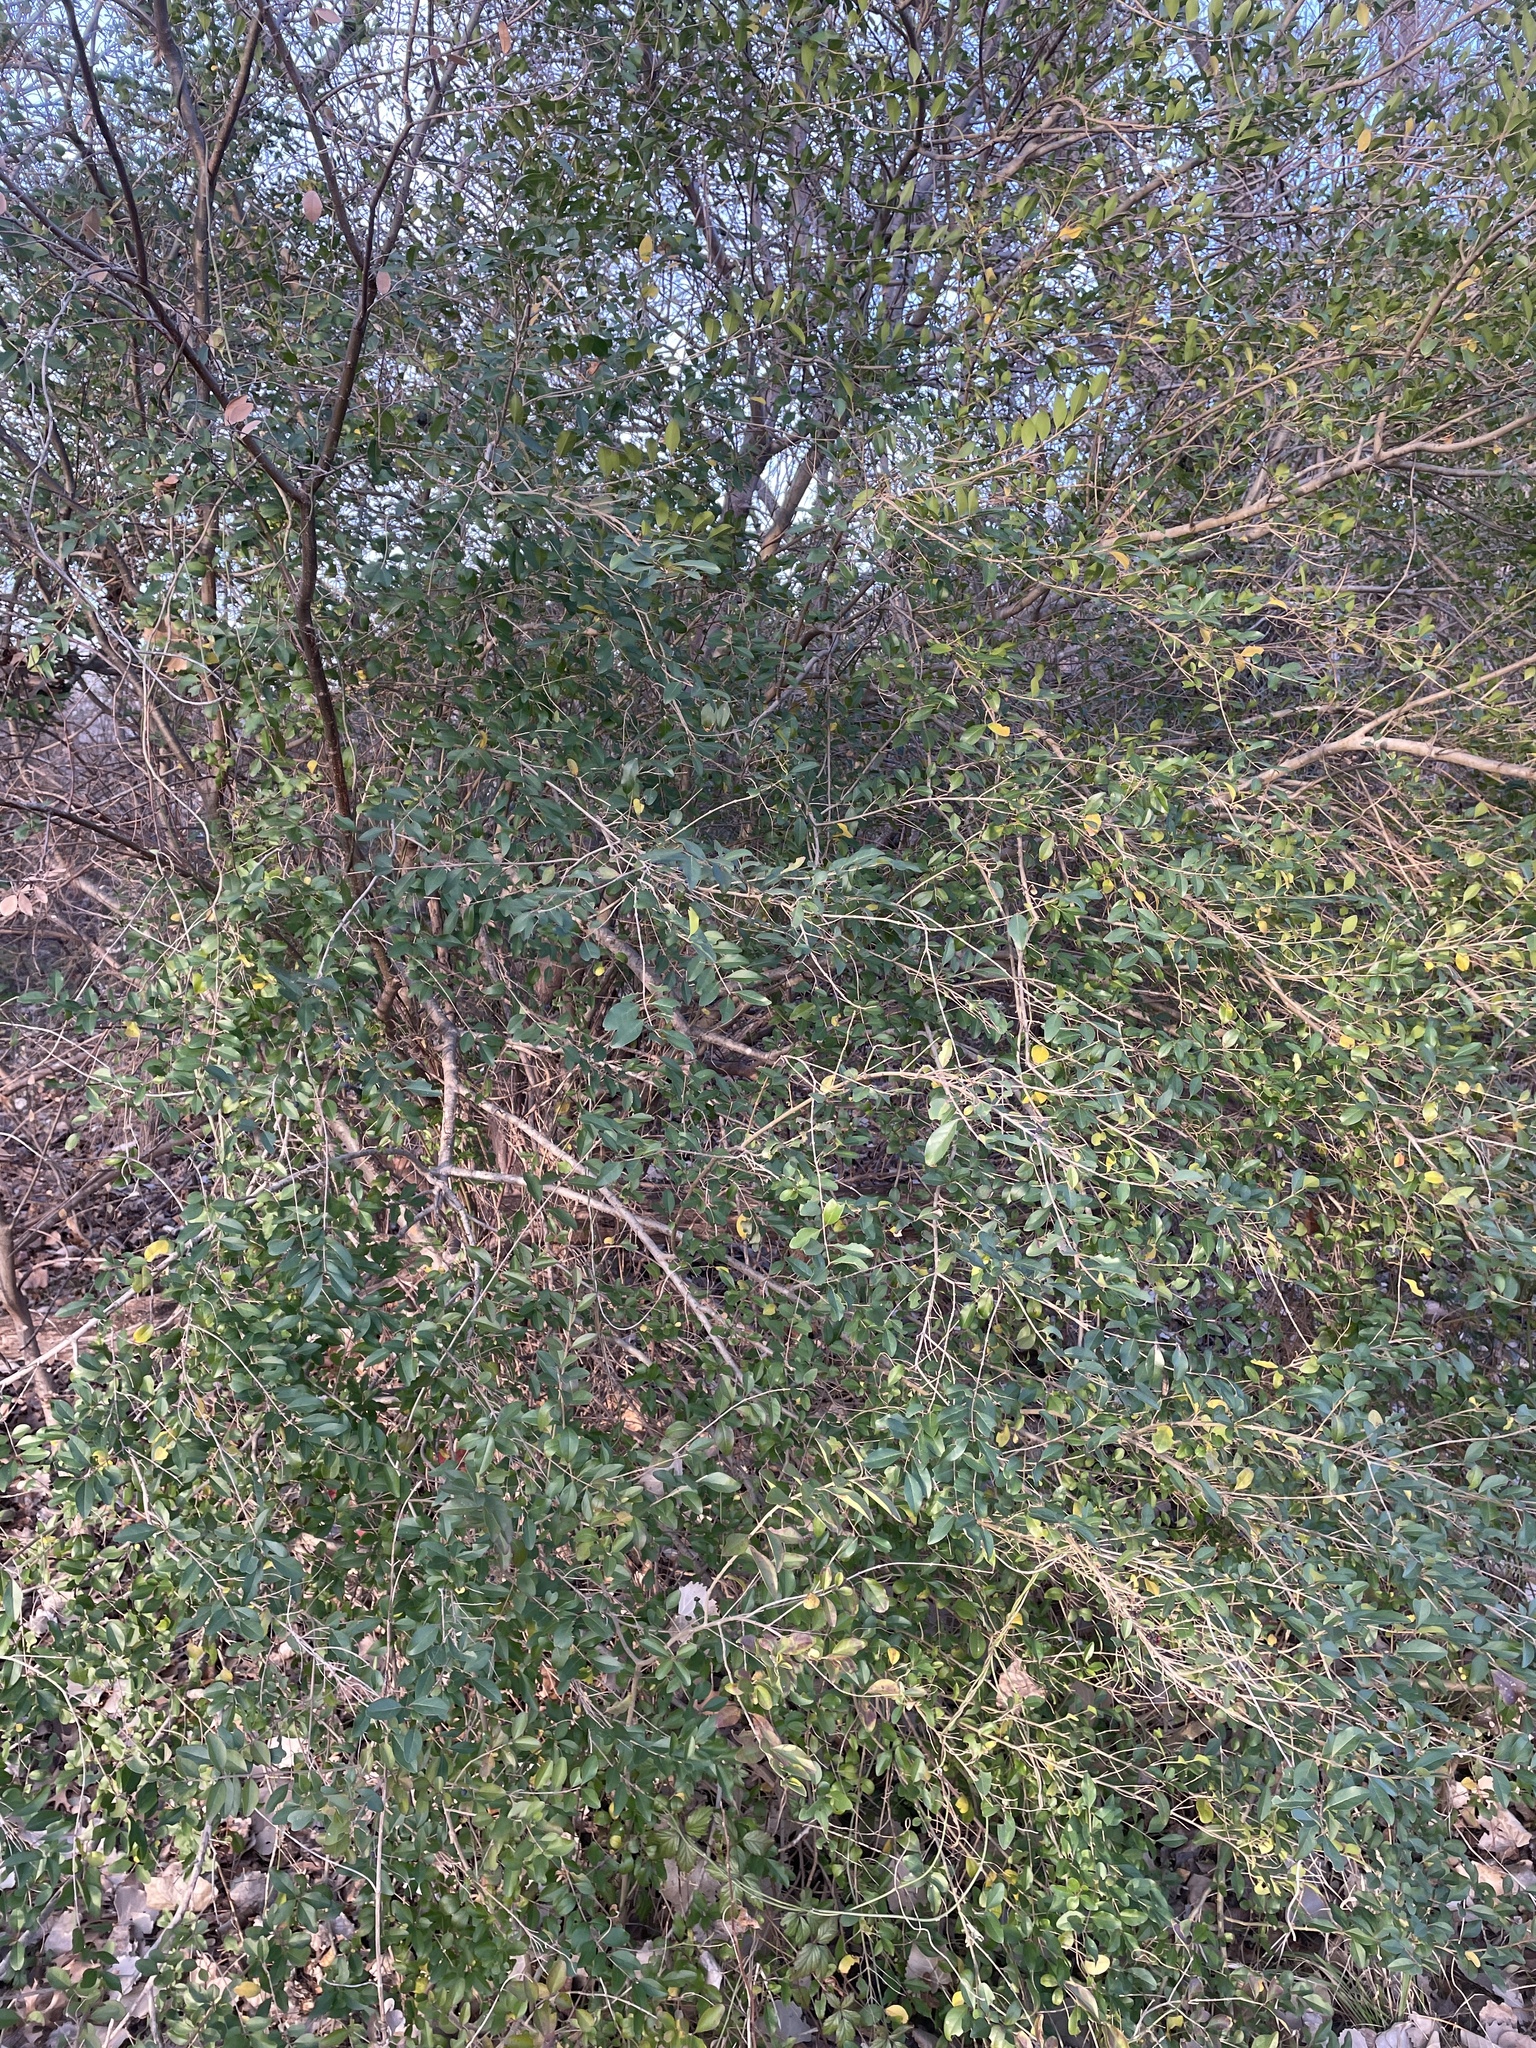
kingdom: Plantae
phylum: Tracheophyta
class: Magnoliopsida
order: Lamiales
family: Oleaceae
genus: Ligustrum
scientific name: Ligustrum sinense
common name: Chinese privet
